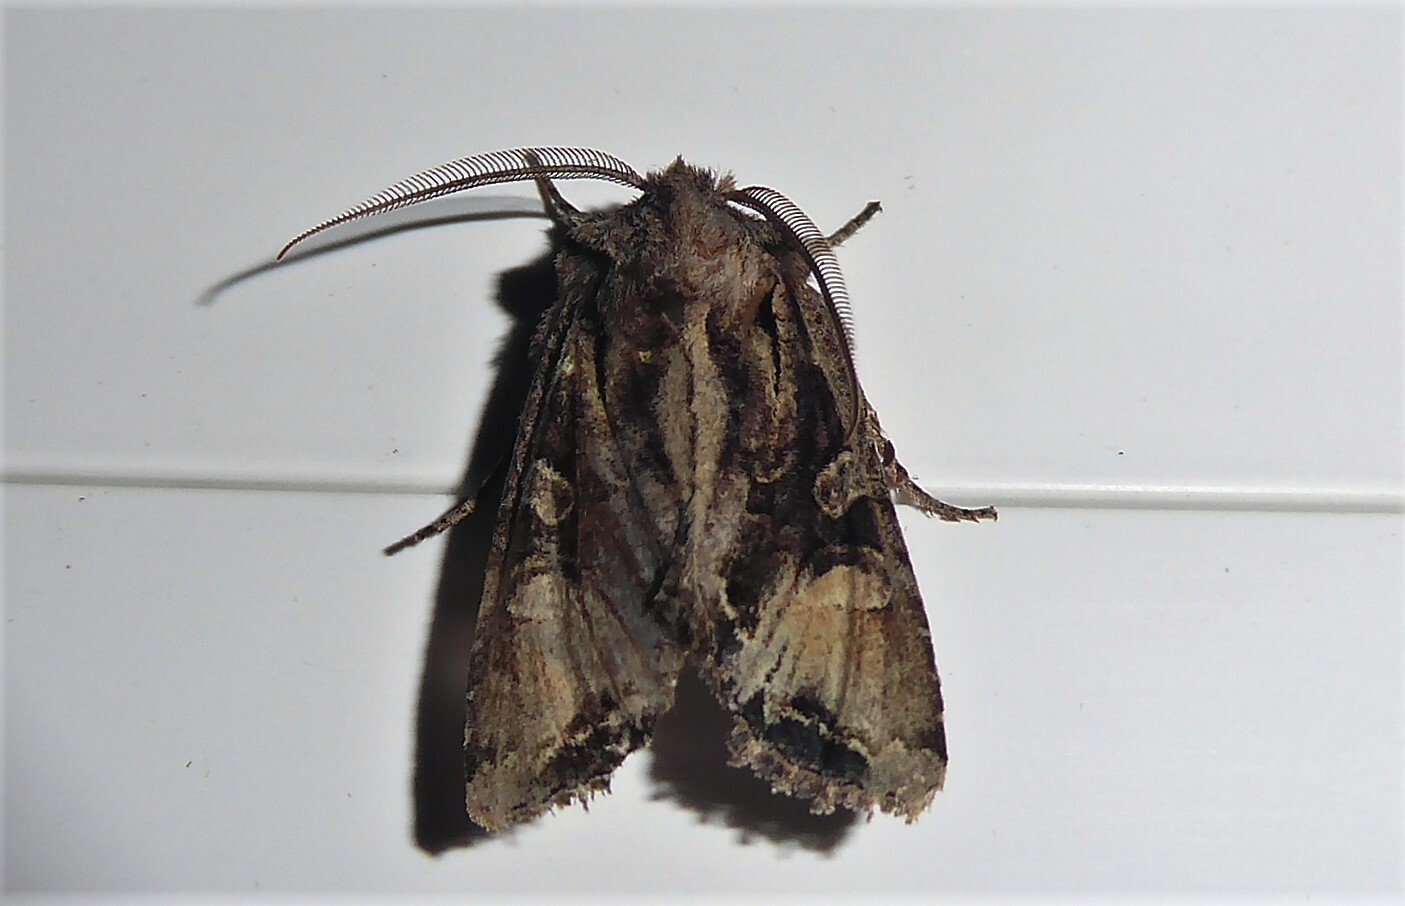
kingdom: Animalia
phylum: Arthropoda
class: Insecta
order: Lepidoptera
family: Noctuidae
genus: Ichneutica
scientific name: Ichneutica
